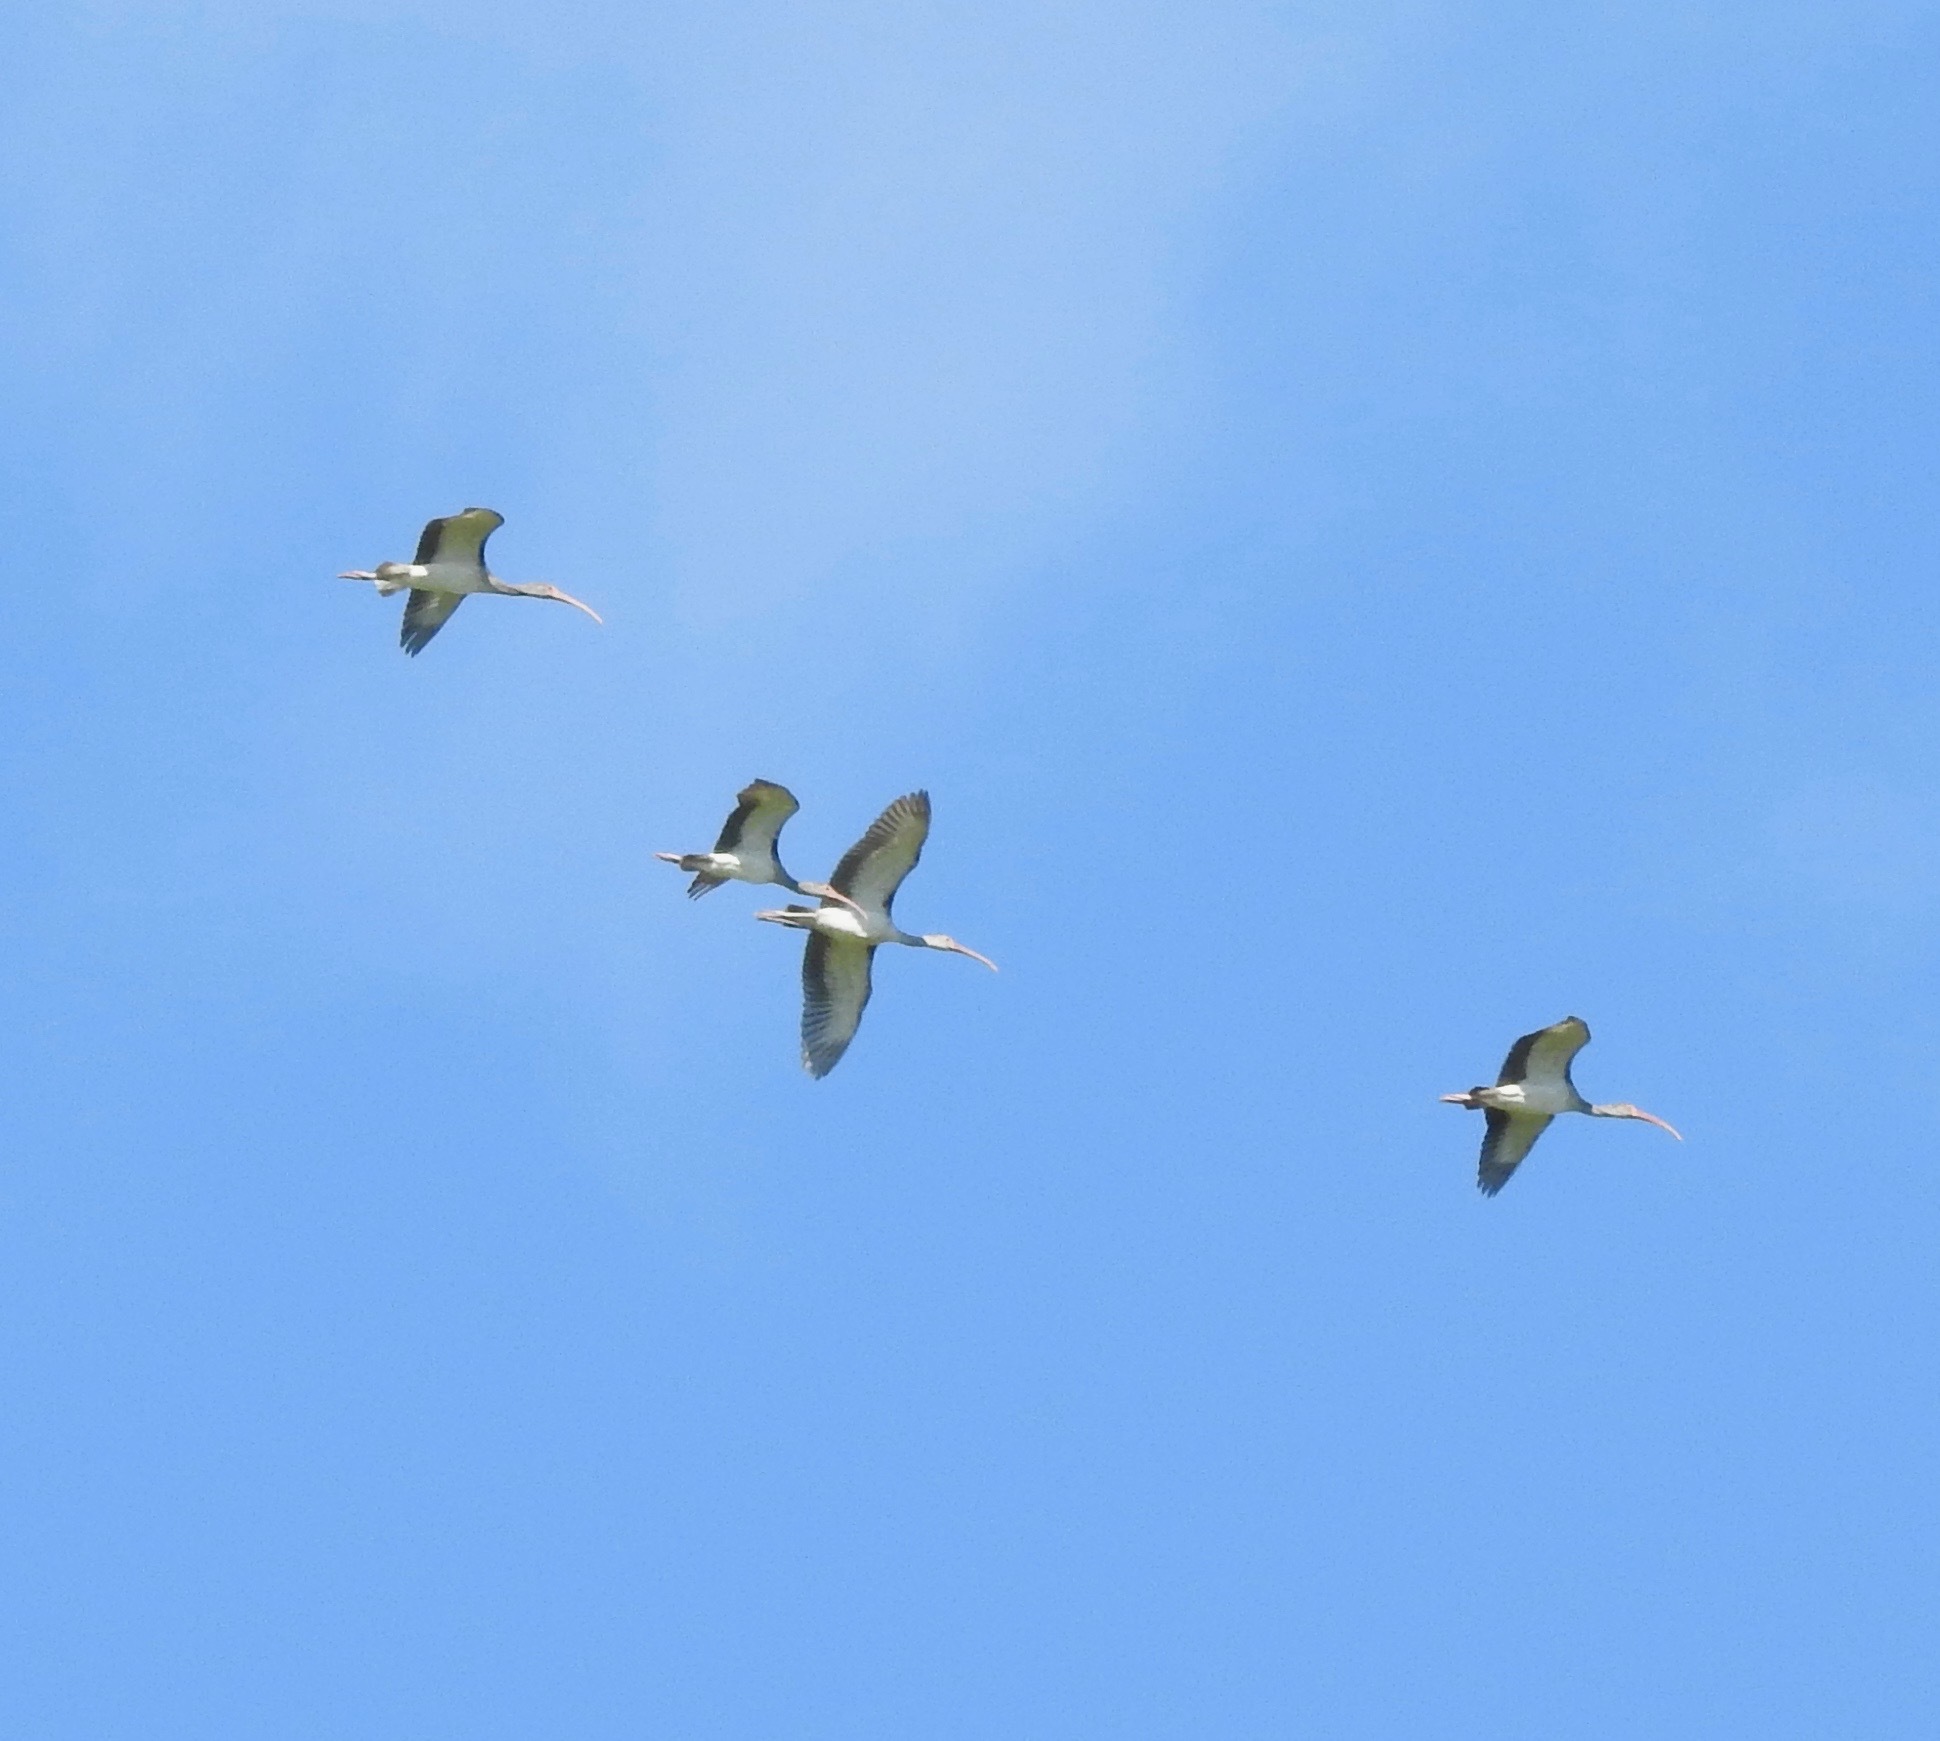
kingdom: Animalia
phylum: Chordata
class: Aves
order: Pelecaniformes
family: Threskiornithidae
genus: Eudocimus
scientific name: Eudocimus albus
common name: White ibis
